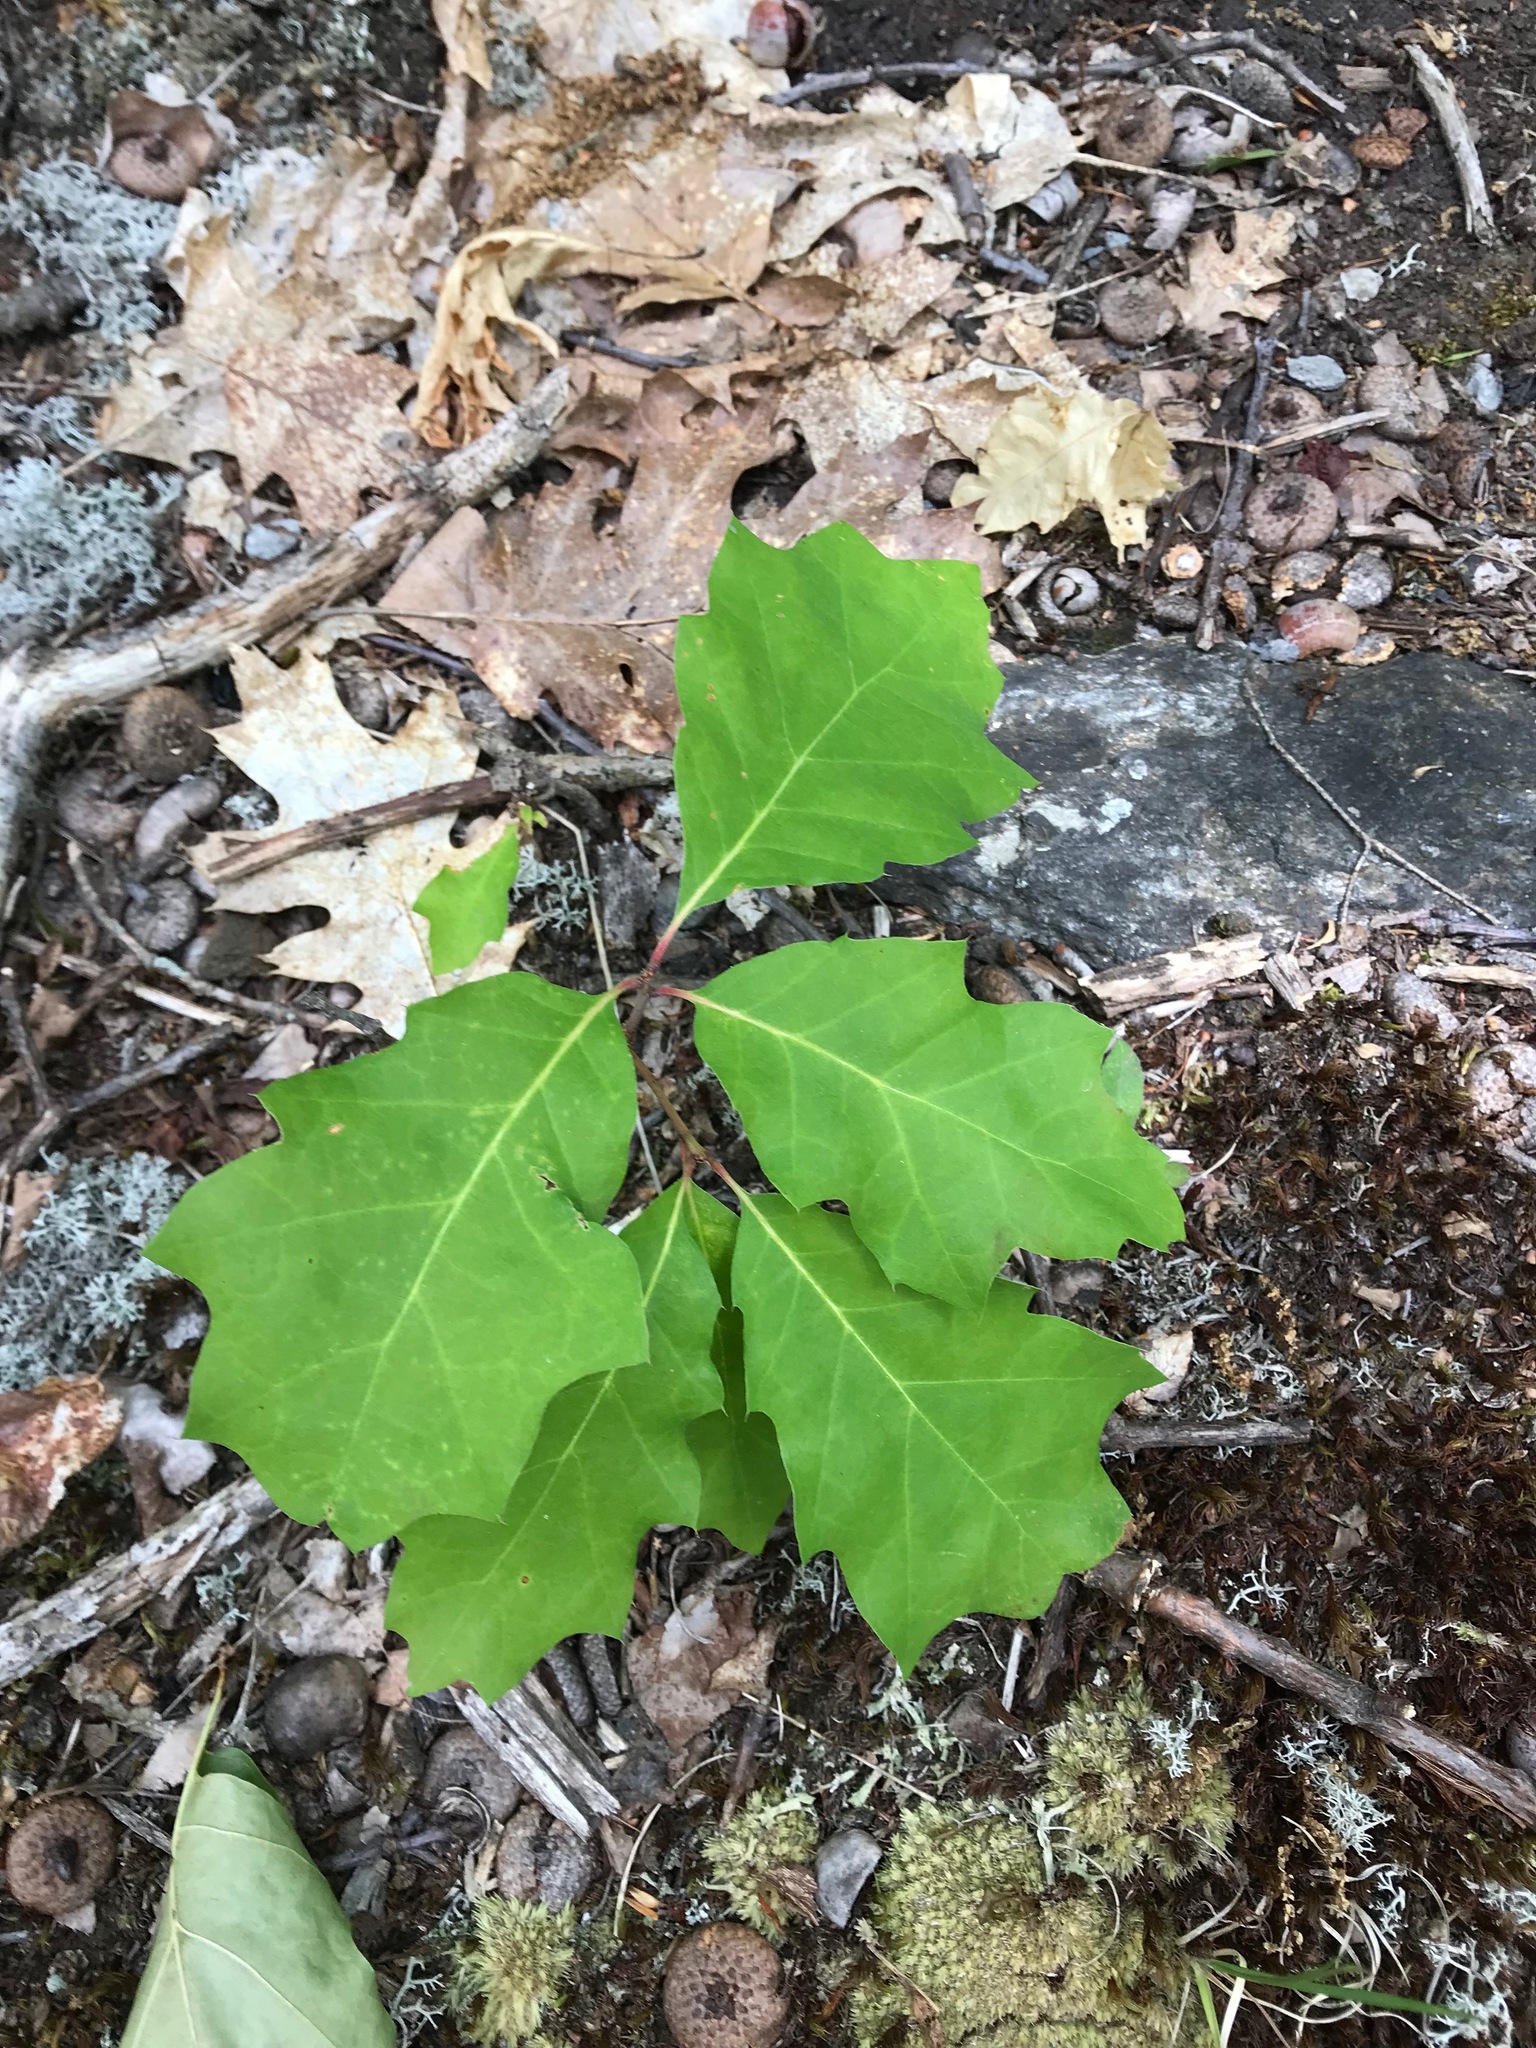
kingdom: Plantae
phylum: Tracheophyta
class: Magnoliopsida
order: Fagales
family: Fagaceae
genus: Quercus
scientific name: Quercus rubra
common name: Red oak
